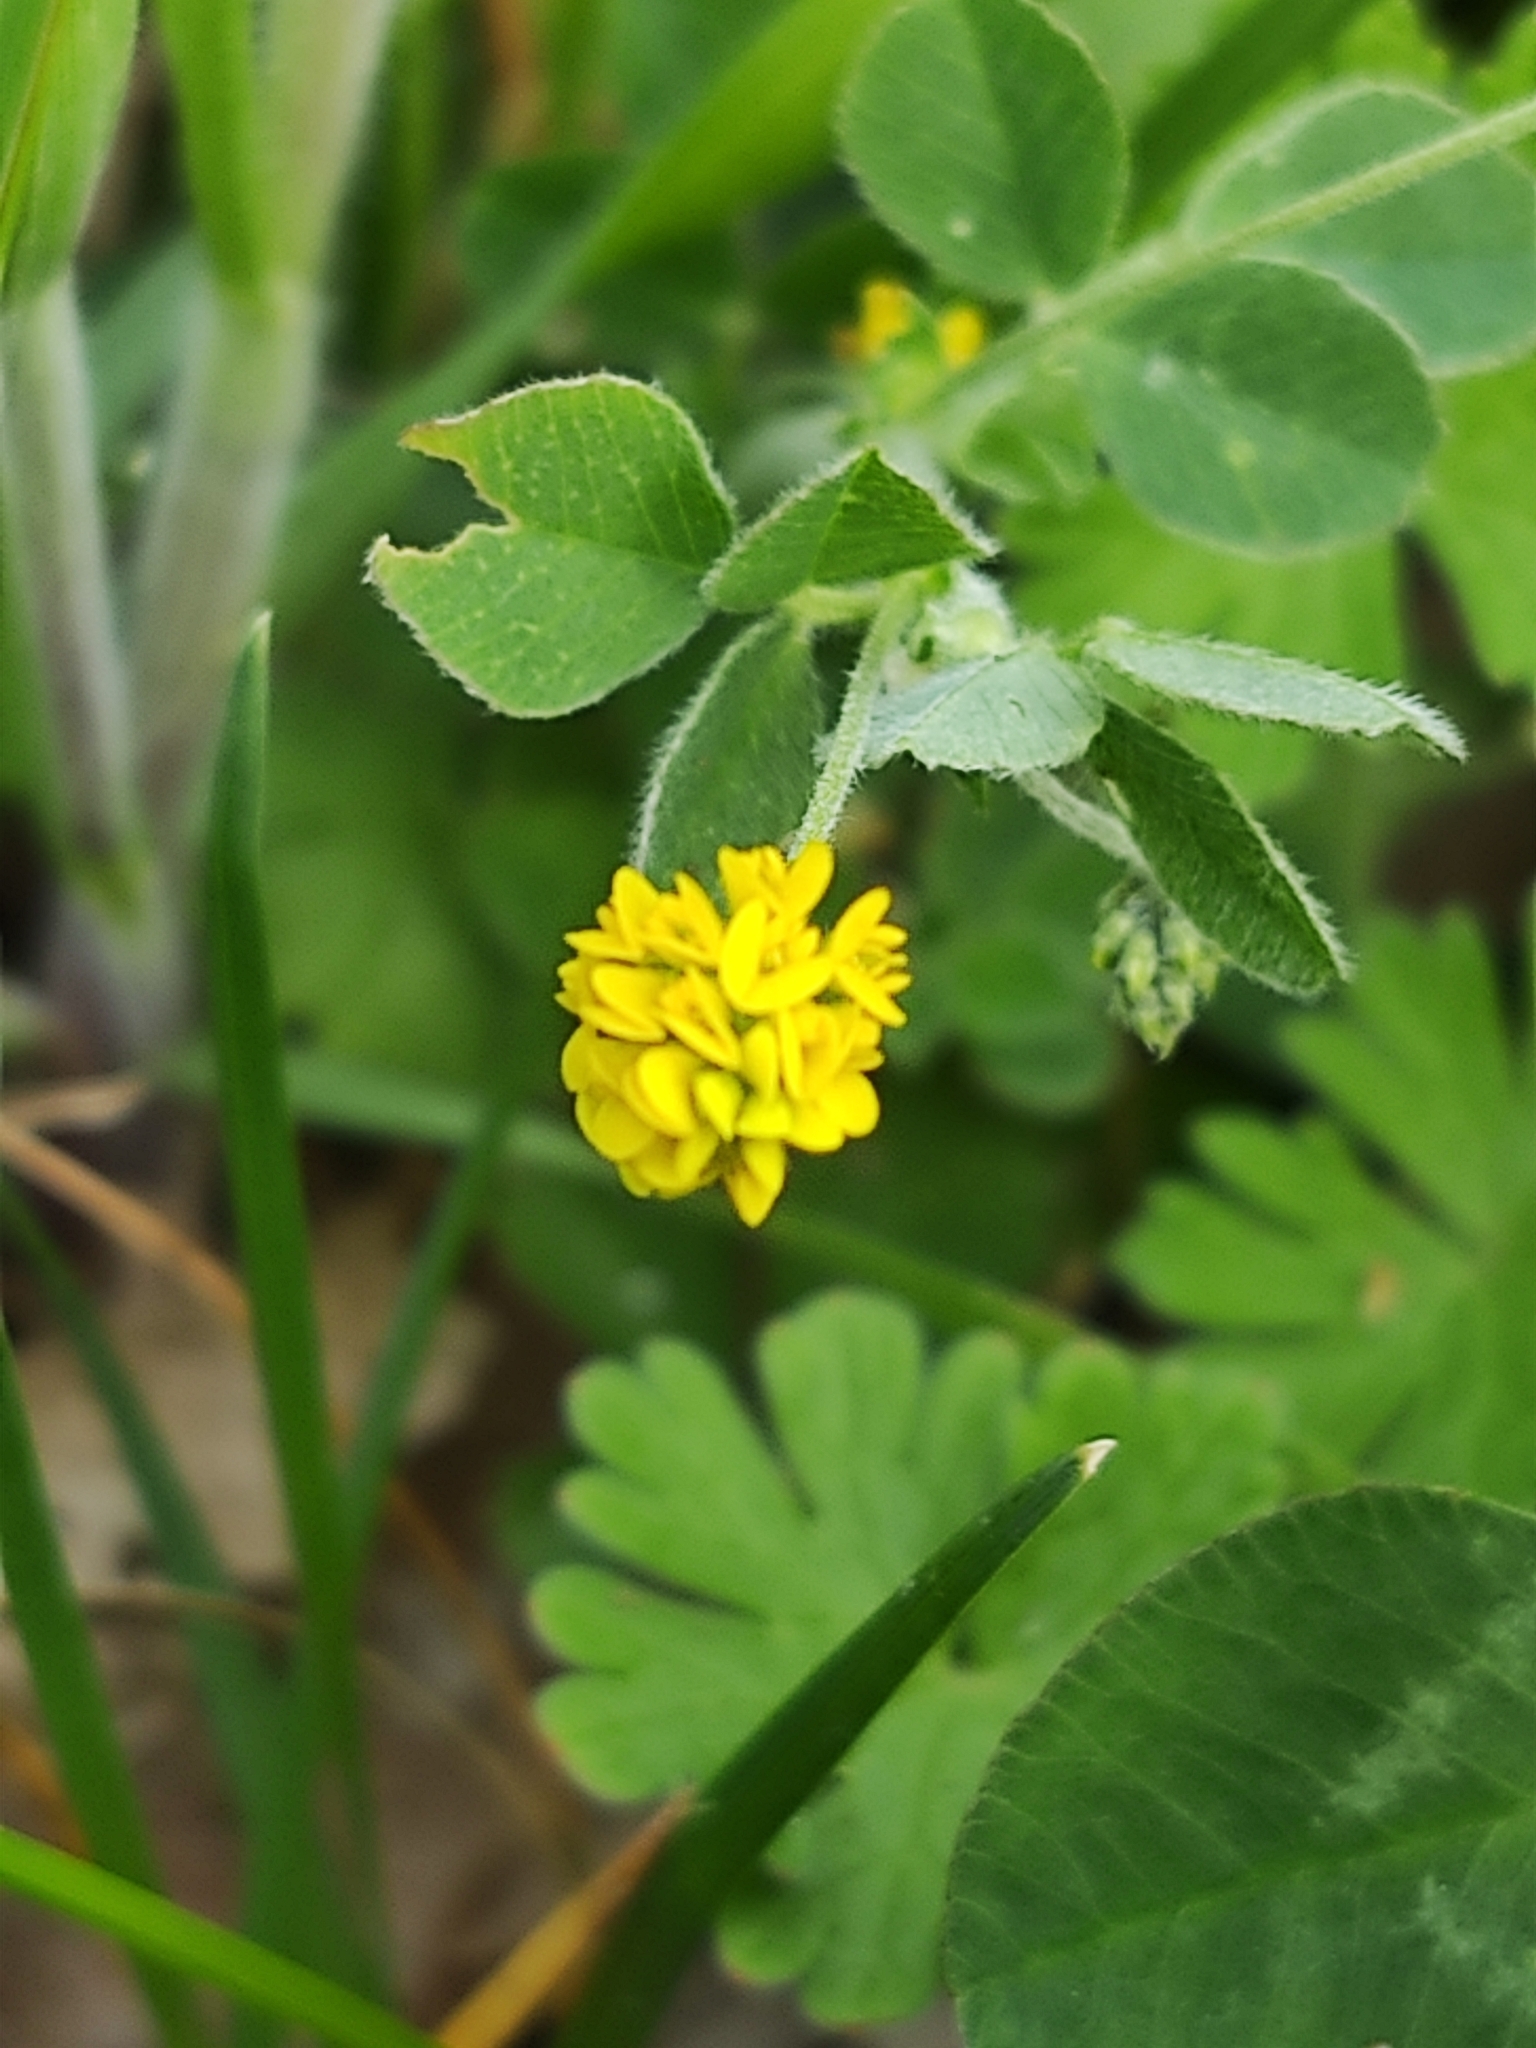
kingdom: Plantae
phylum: Tracheophyta
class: Magnoliopsida
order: Fabales
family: Fabaceae
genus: Medicago
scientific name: Medicago lupulina
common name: Black medick
